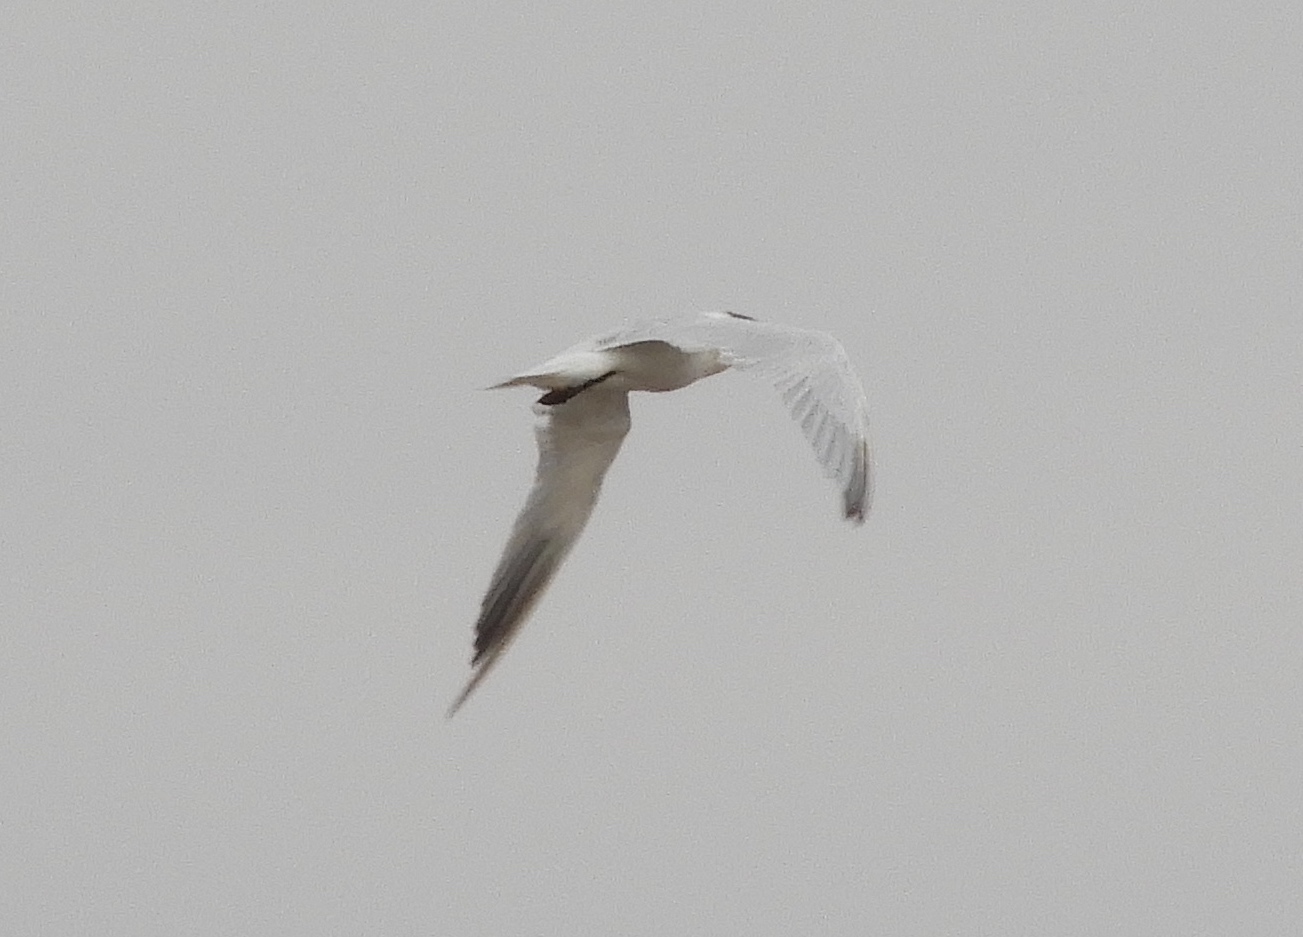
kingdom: Animalia
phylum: Chordata
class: Aves
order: Charadriiformes
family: Laridae
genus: Hydroprogne
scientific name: Hydroprogne caspia
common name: Caspian tern
